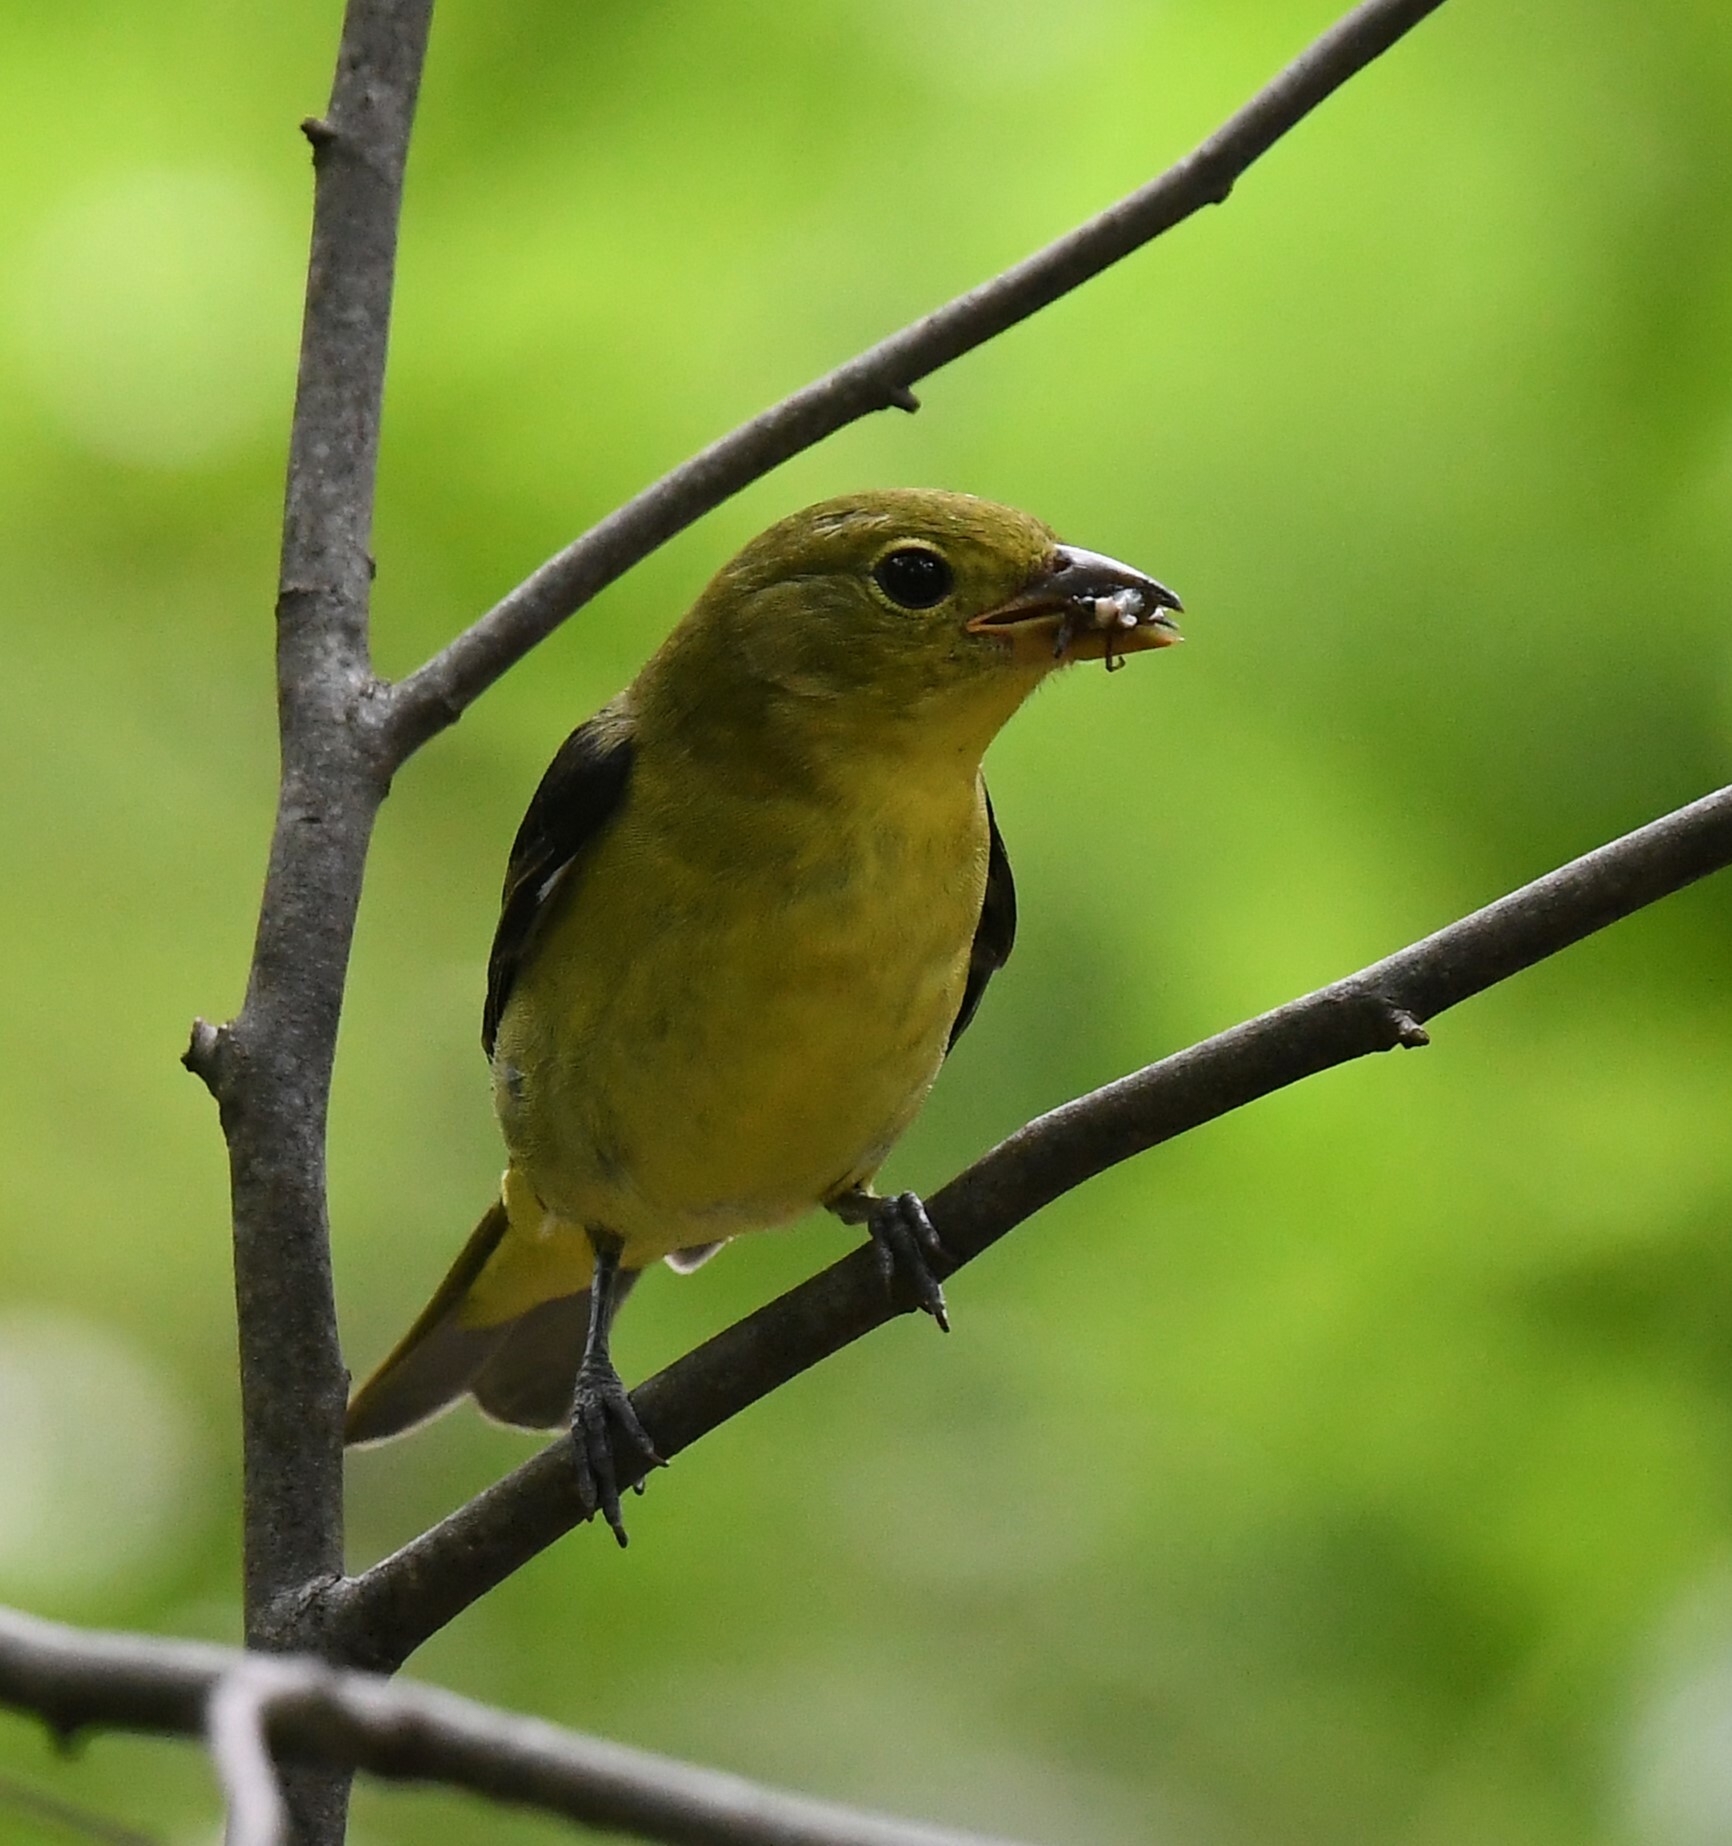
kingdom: Animalia
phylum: Chordata
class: Aves
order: Passeriformes
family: Cardinalidae
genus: Piranga
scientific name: Piranga olivacea
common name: Scarlet tanager
